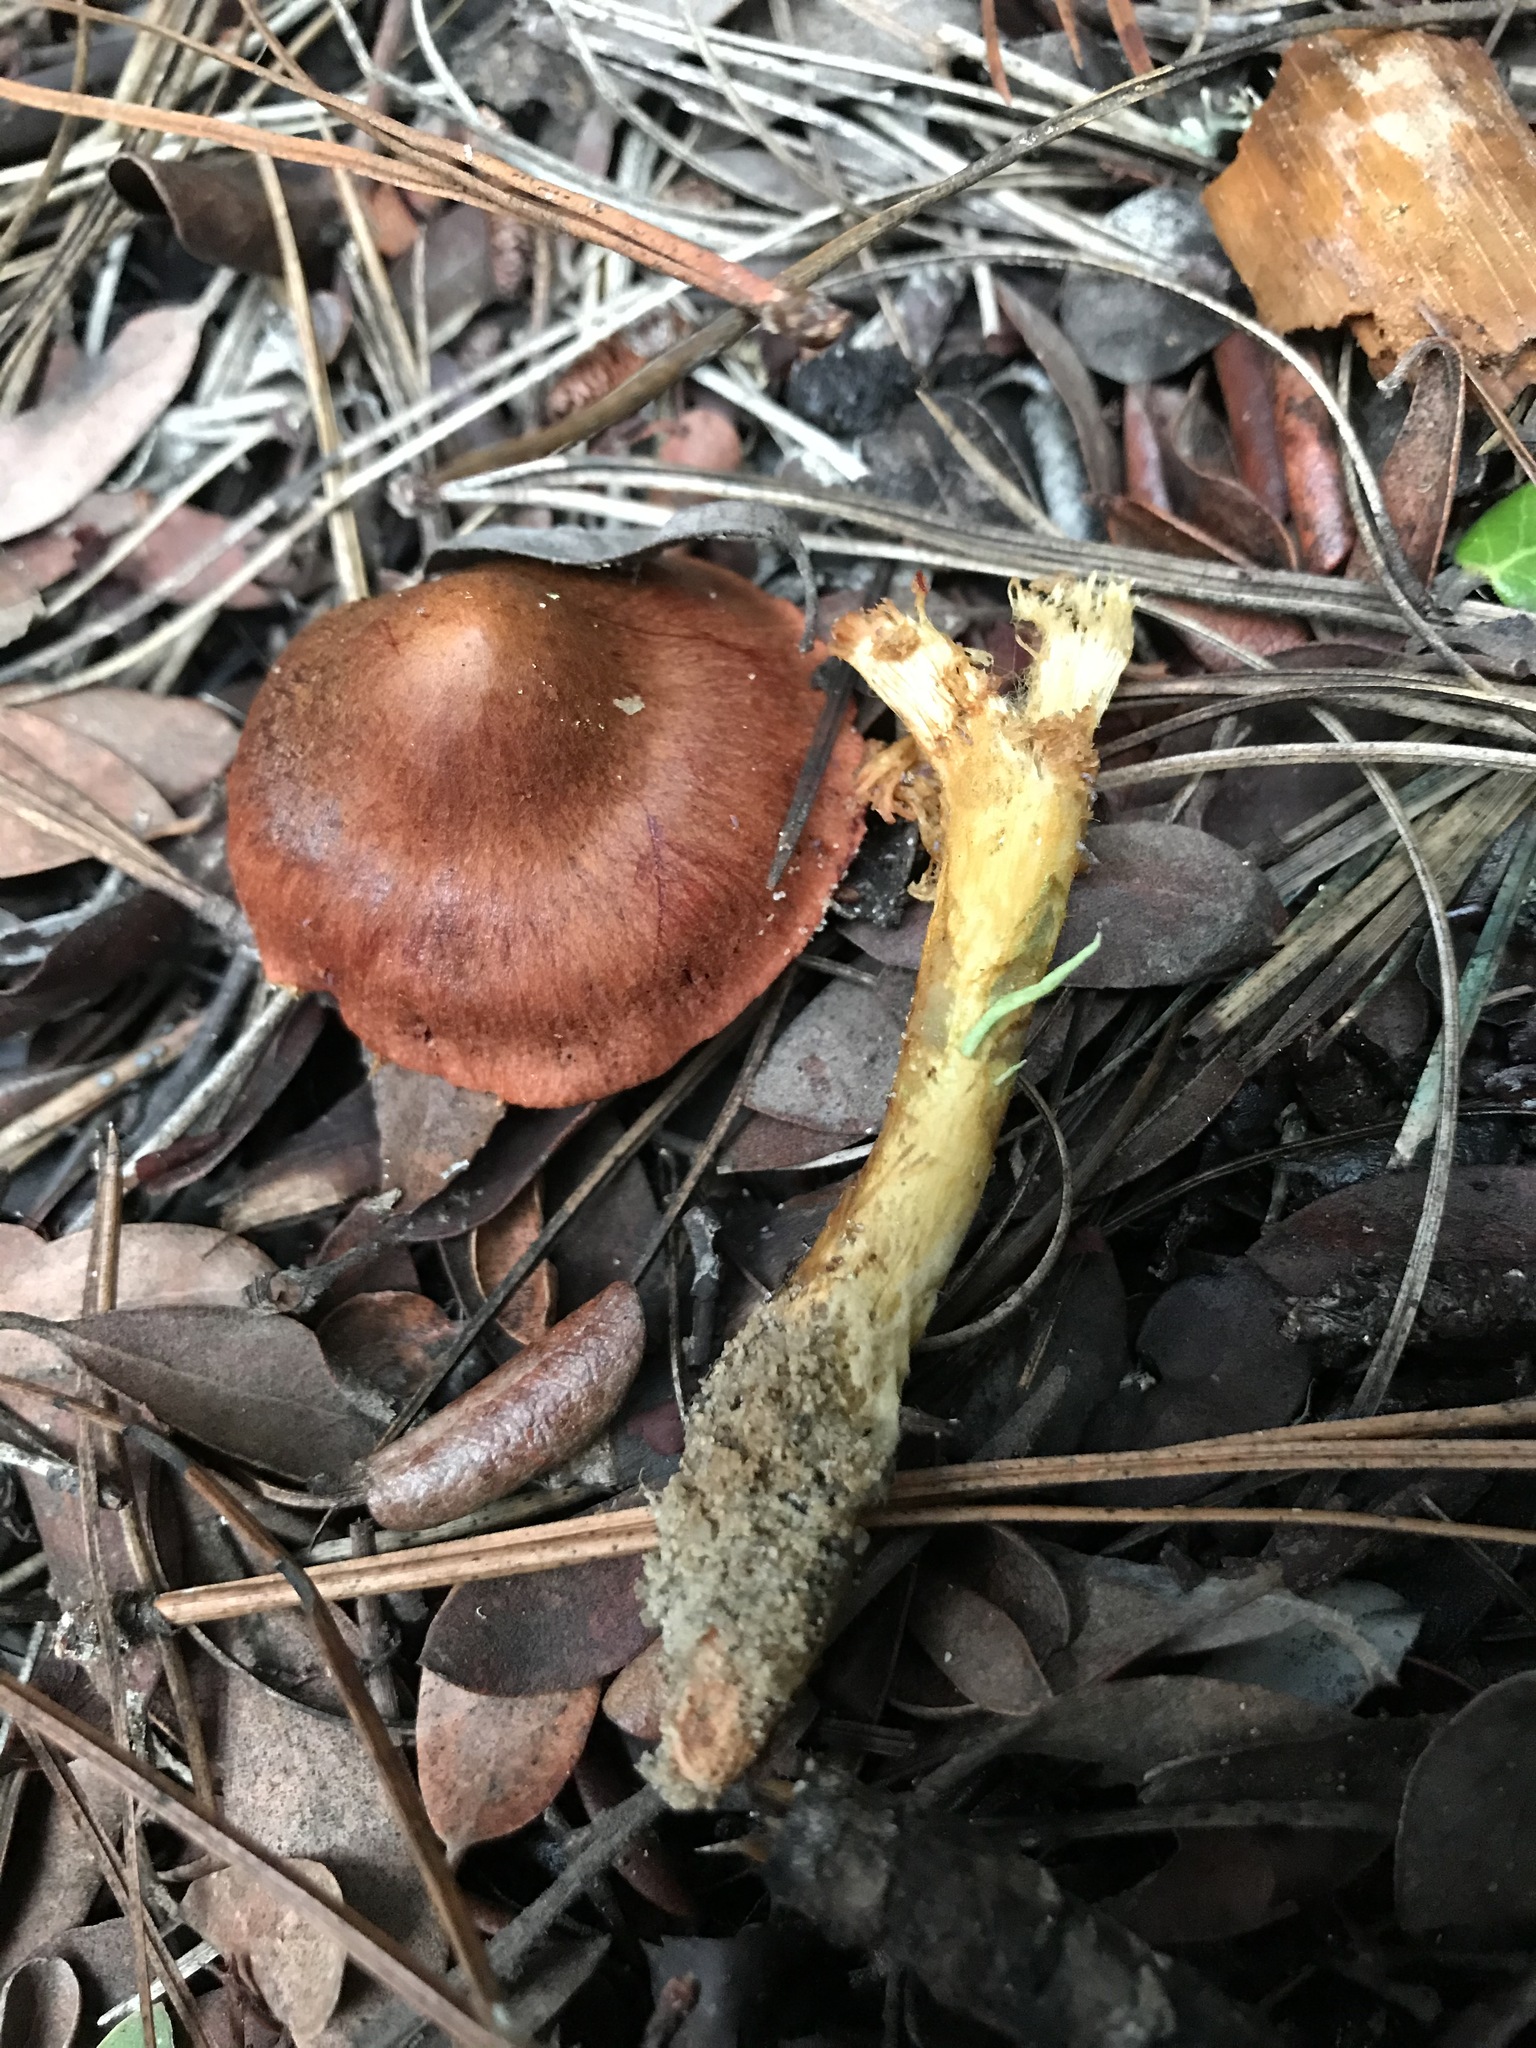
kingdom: Fungi
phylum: Basidiomycota
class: Agaricomycetes
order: Agaricales
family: Cortinariaceae
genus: Cortinarius
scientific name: Cortinarius smithii
